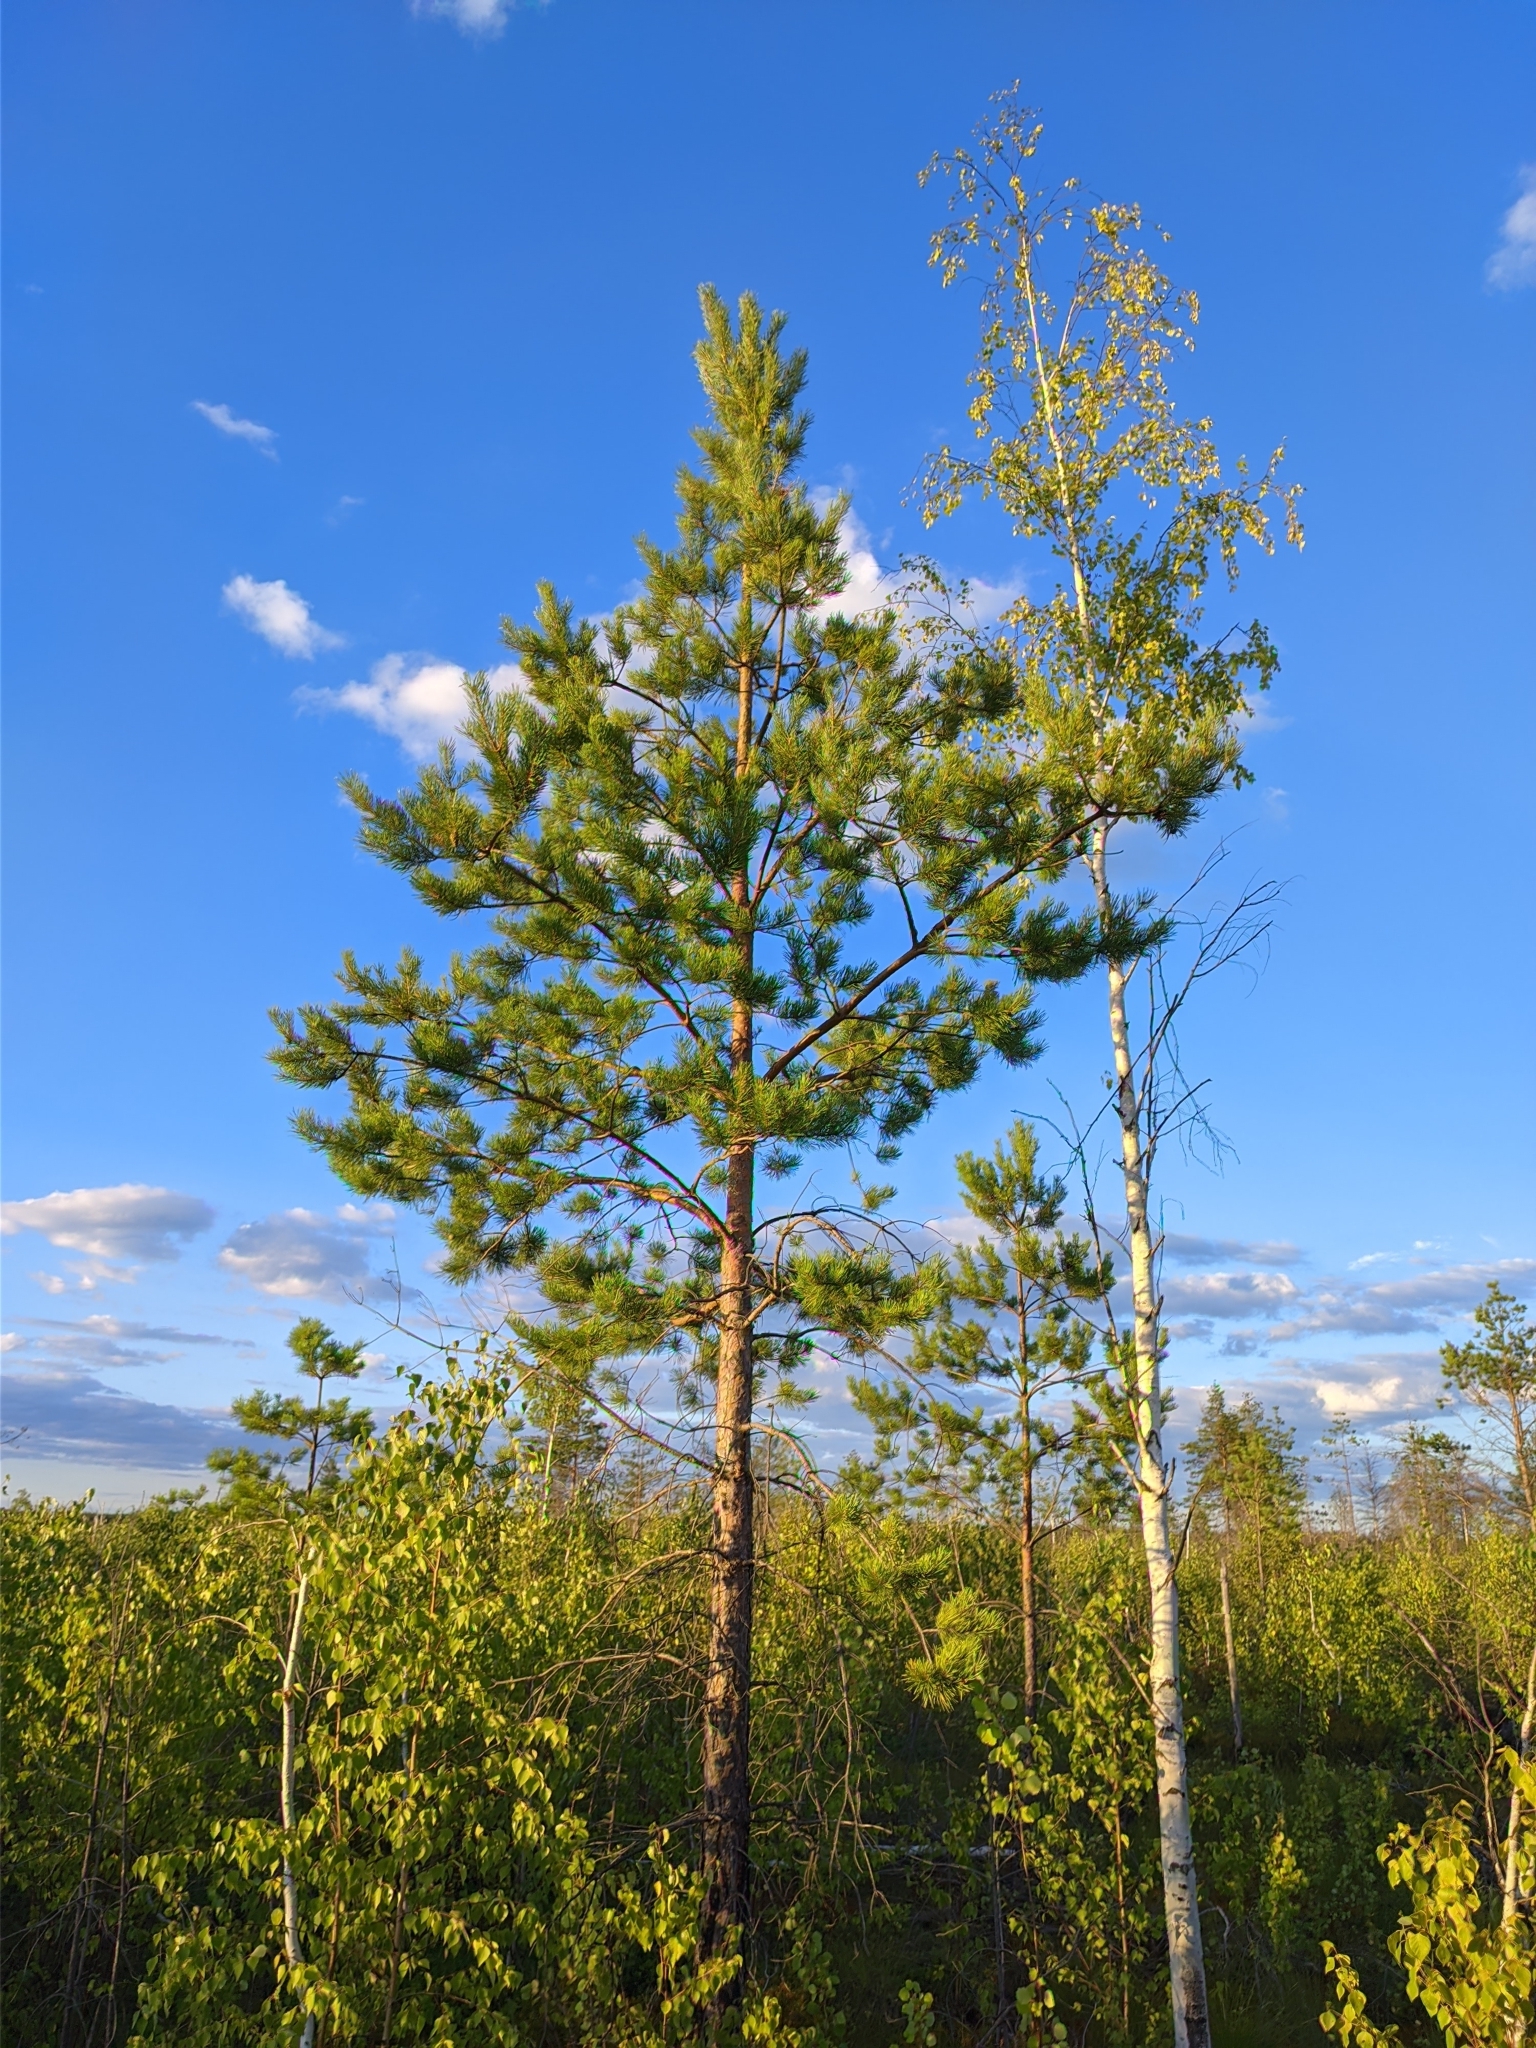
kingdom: Plantae
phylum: Tracheophyta
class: Pinopsida
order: Pinales
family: Pinaceae
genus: Pinus
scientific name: Pinus sylvestris
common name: Scots pine
